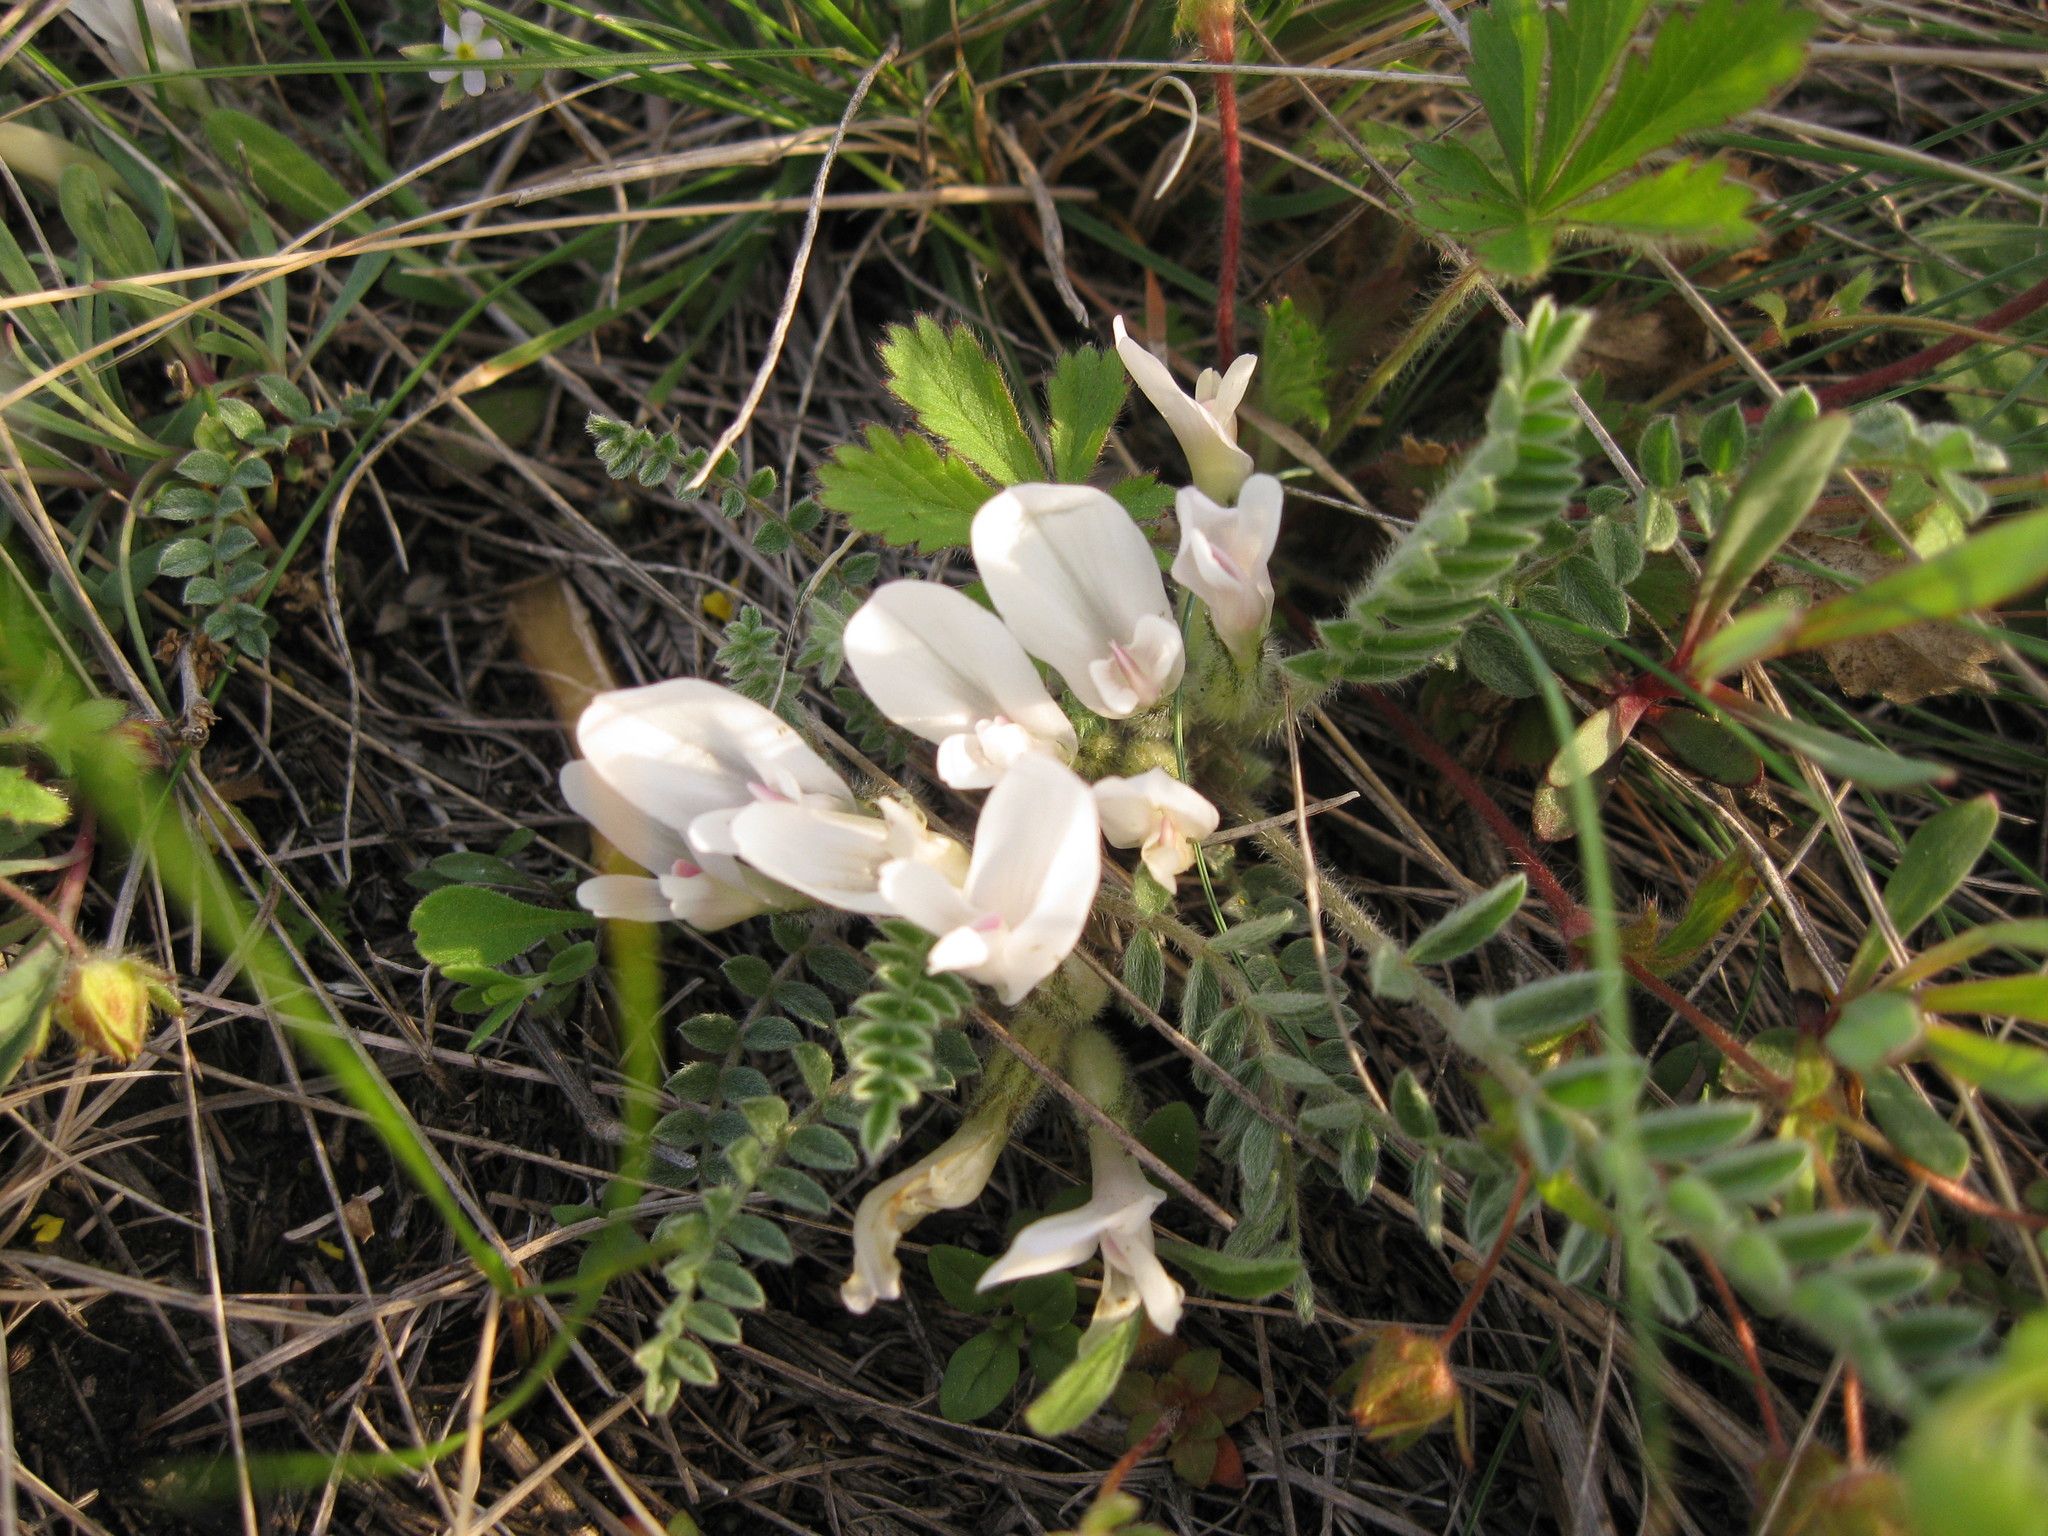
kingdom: Plantae
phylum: Tracheophyta
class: Magnoliopsida
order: Fabales
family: Fabaceae
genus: Astragalus
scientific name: Astragalus testiculatus
